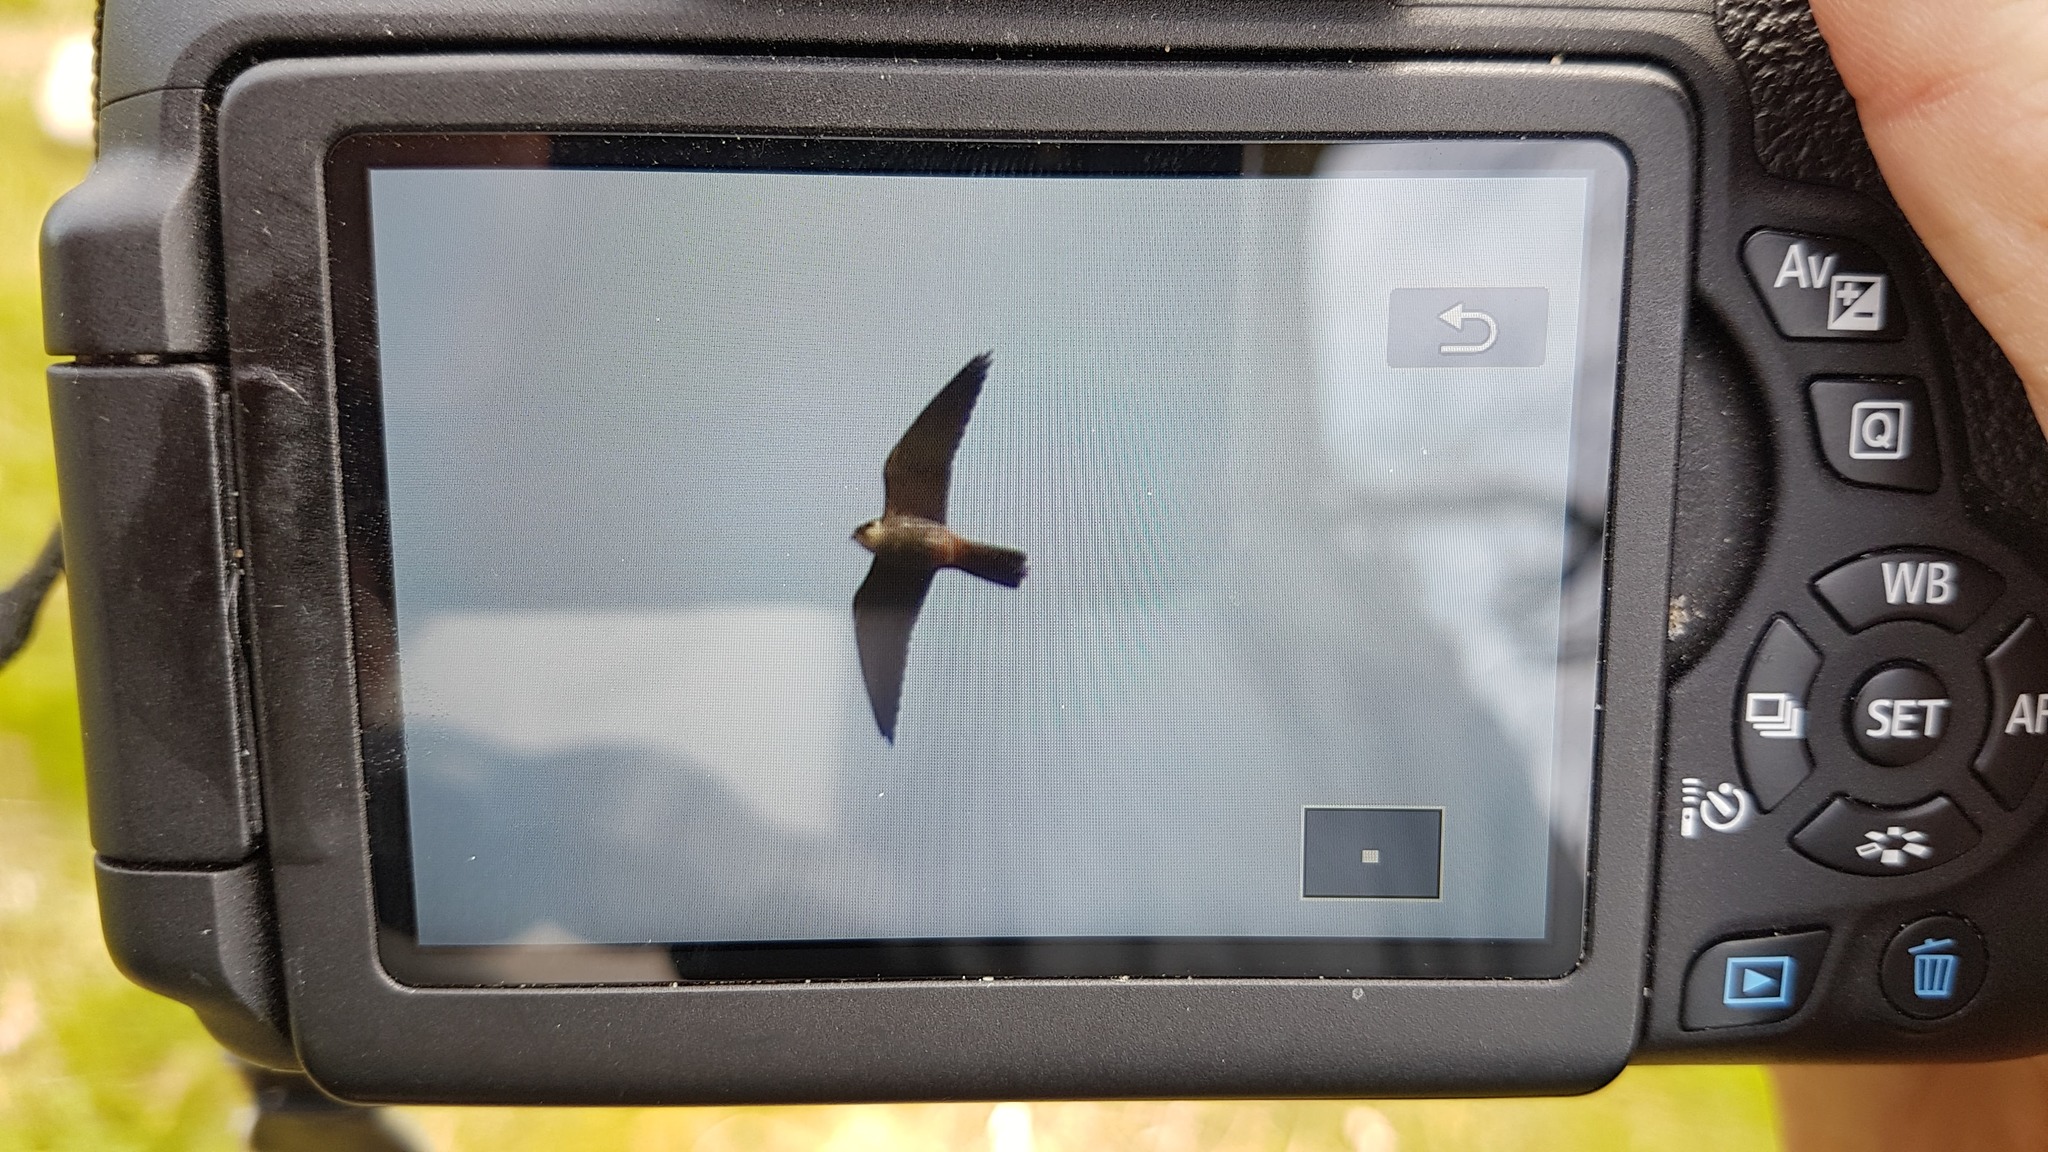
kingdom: Animalia
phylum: Chordata
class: Aves
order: Falconiformes
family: Falconidae
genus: Falco
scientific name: Falco subbuteo
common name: Eurasian hobby
